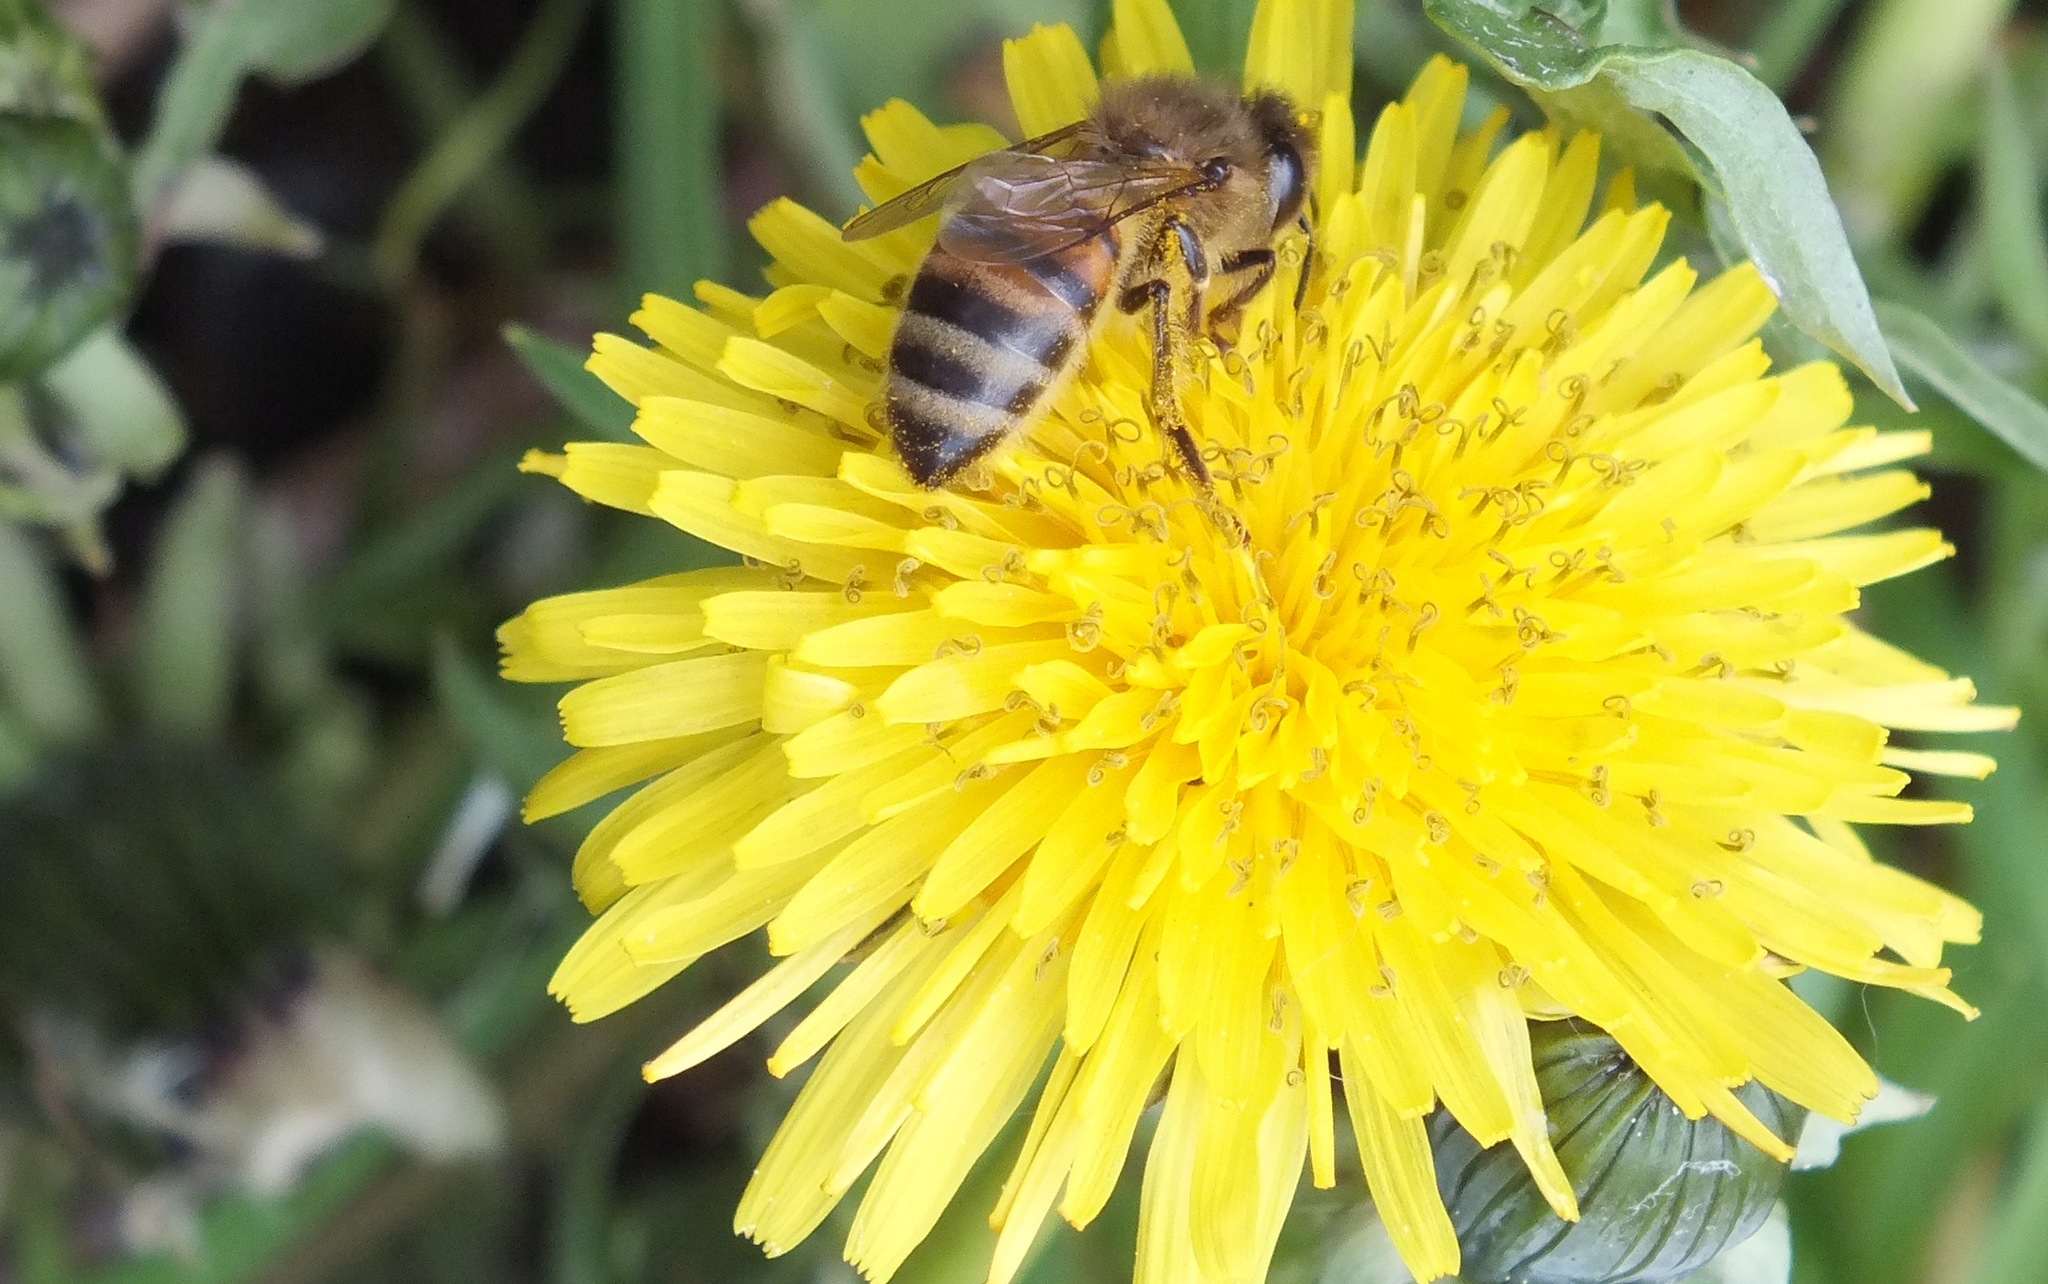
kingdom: Animalia
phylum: Arthropoda
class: Insecta
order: Hymenoptera
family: Apidae
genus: Apis
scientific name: Apis mellifera
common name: Honey bee
